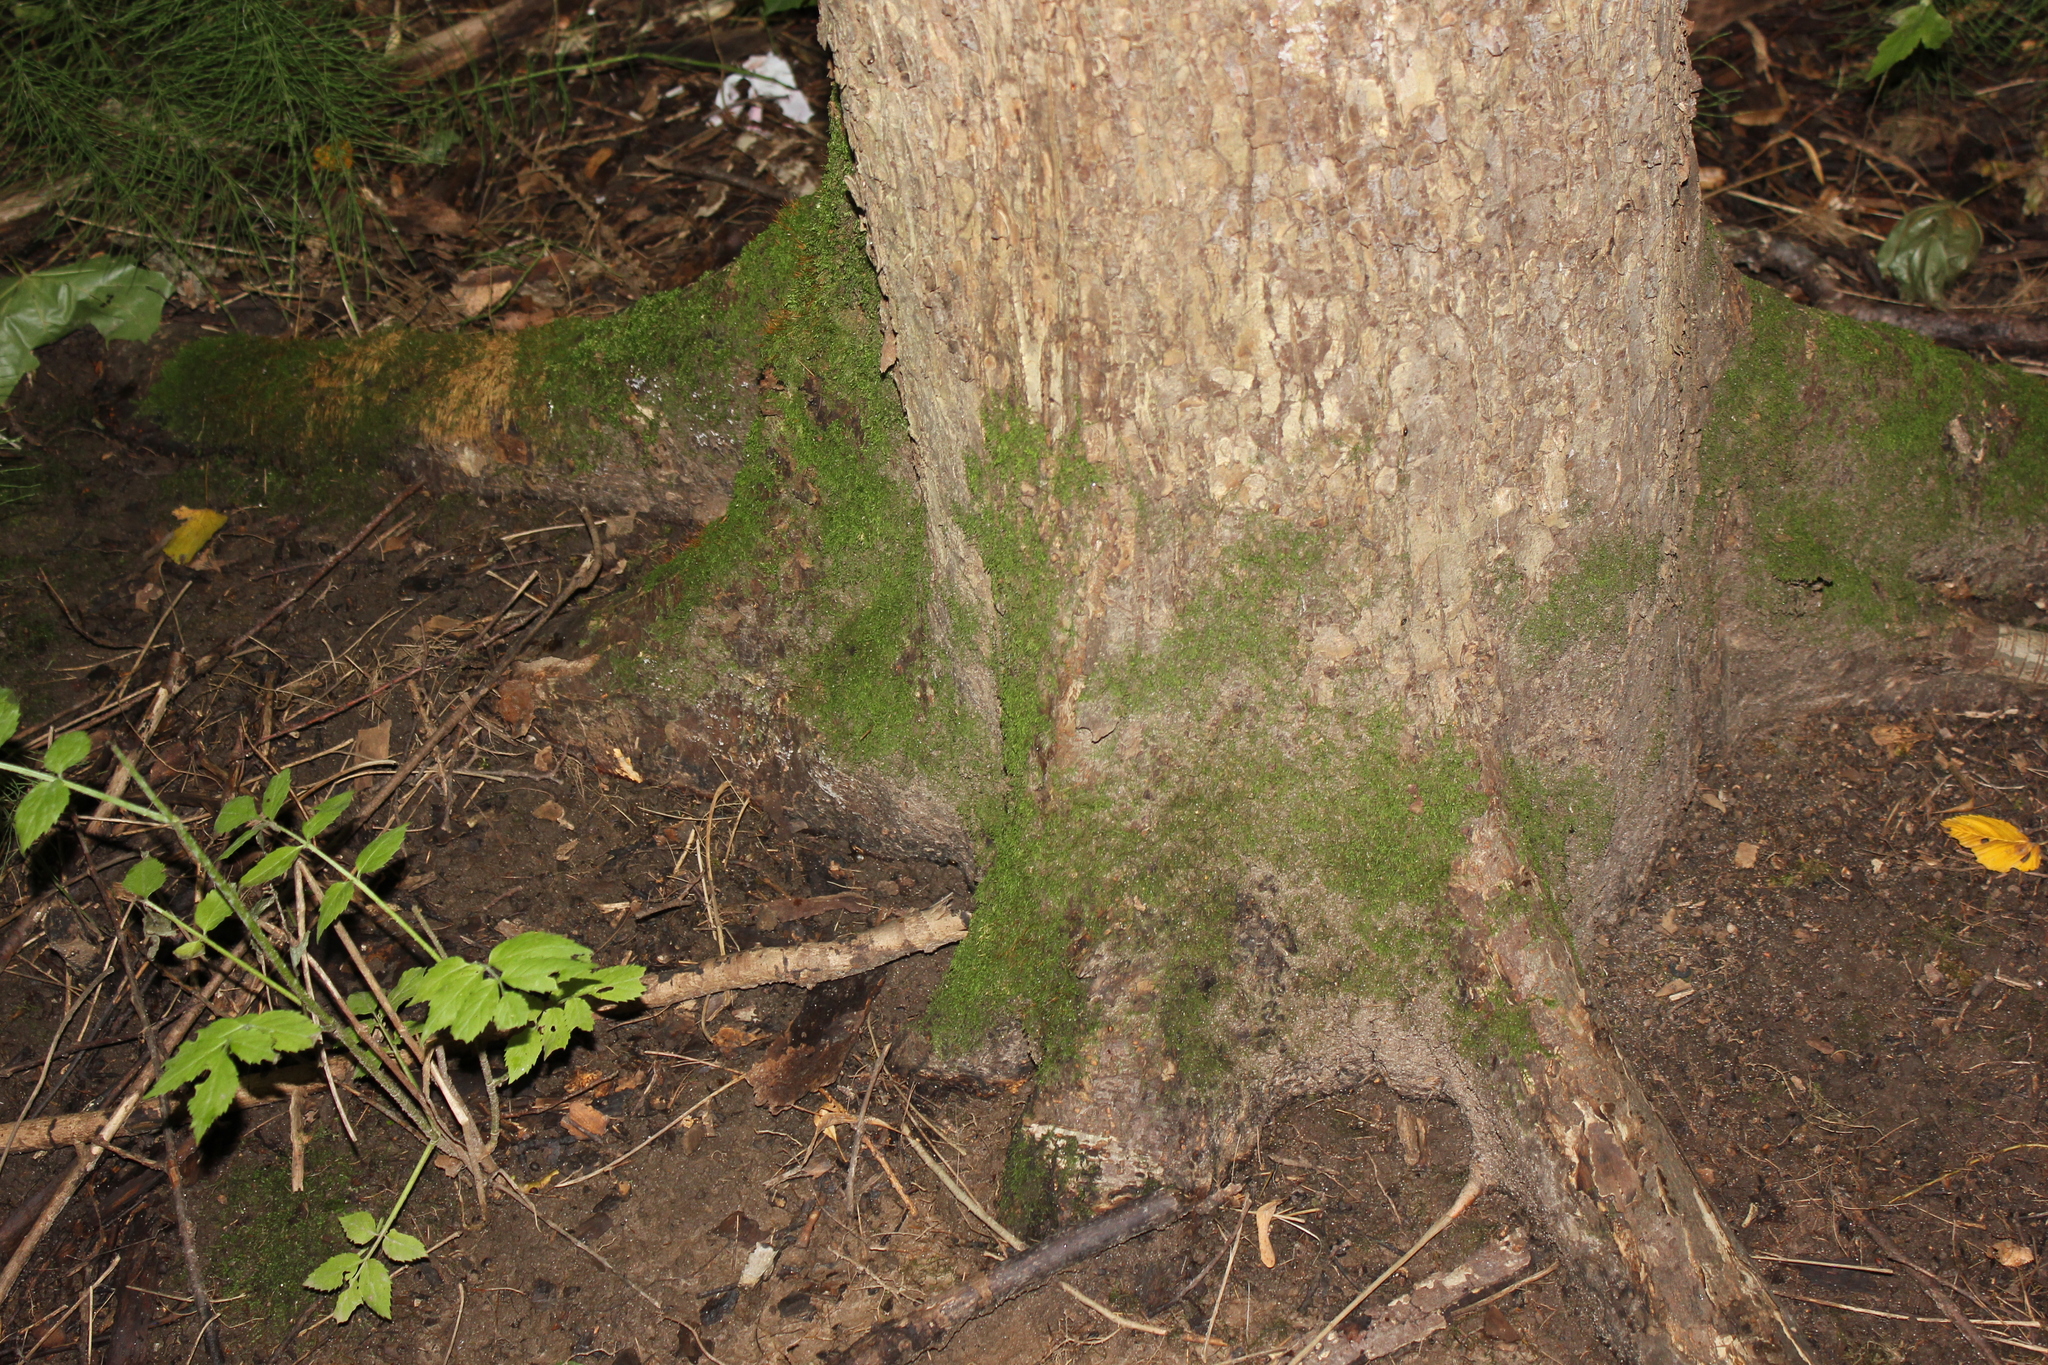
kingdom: Plantae
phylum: Tracheophyta
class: Magnoliopsida
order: Rosales
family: Ulmaceae
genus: Ulmus
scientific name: Ulmus laevis
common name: European white-elm
